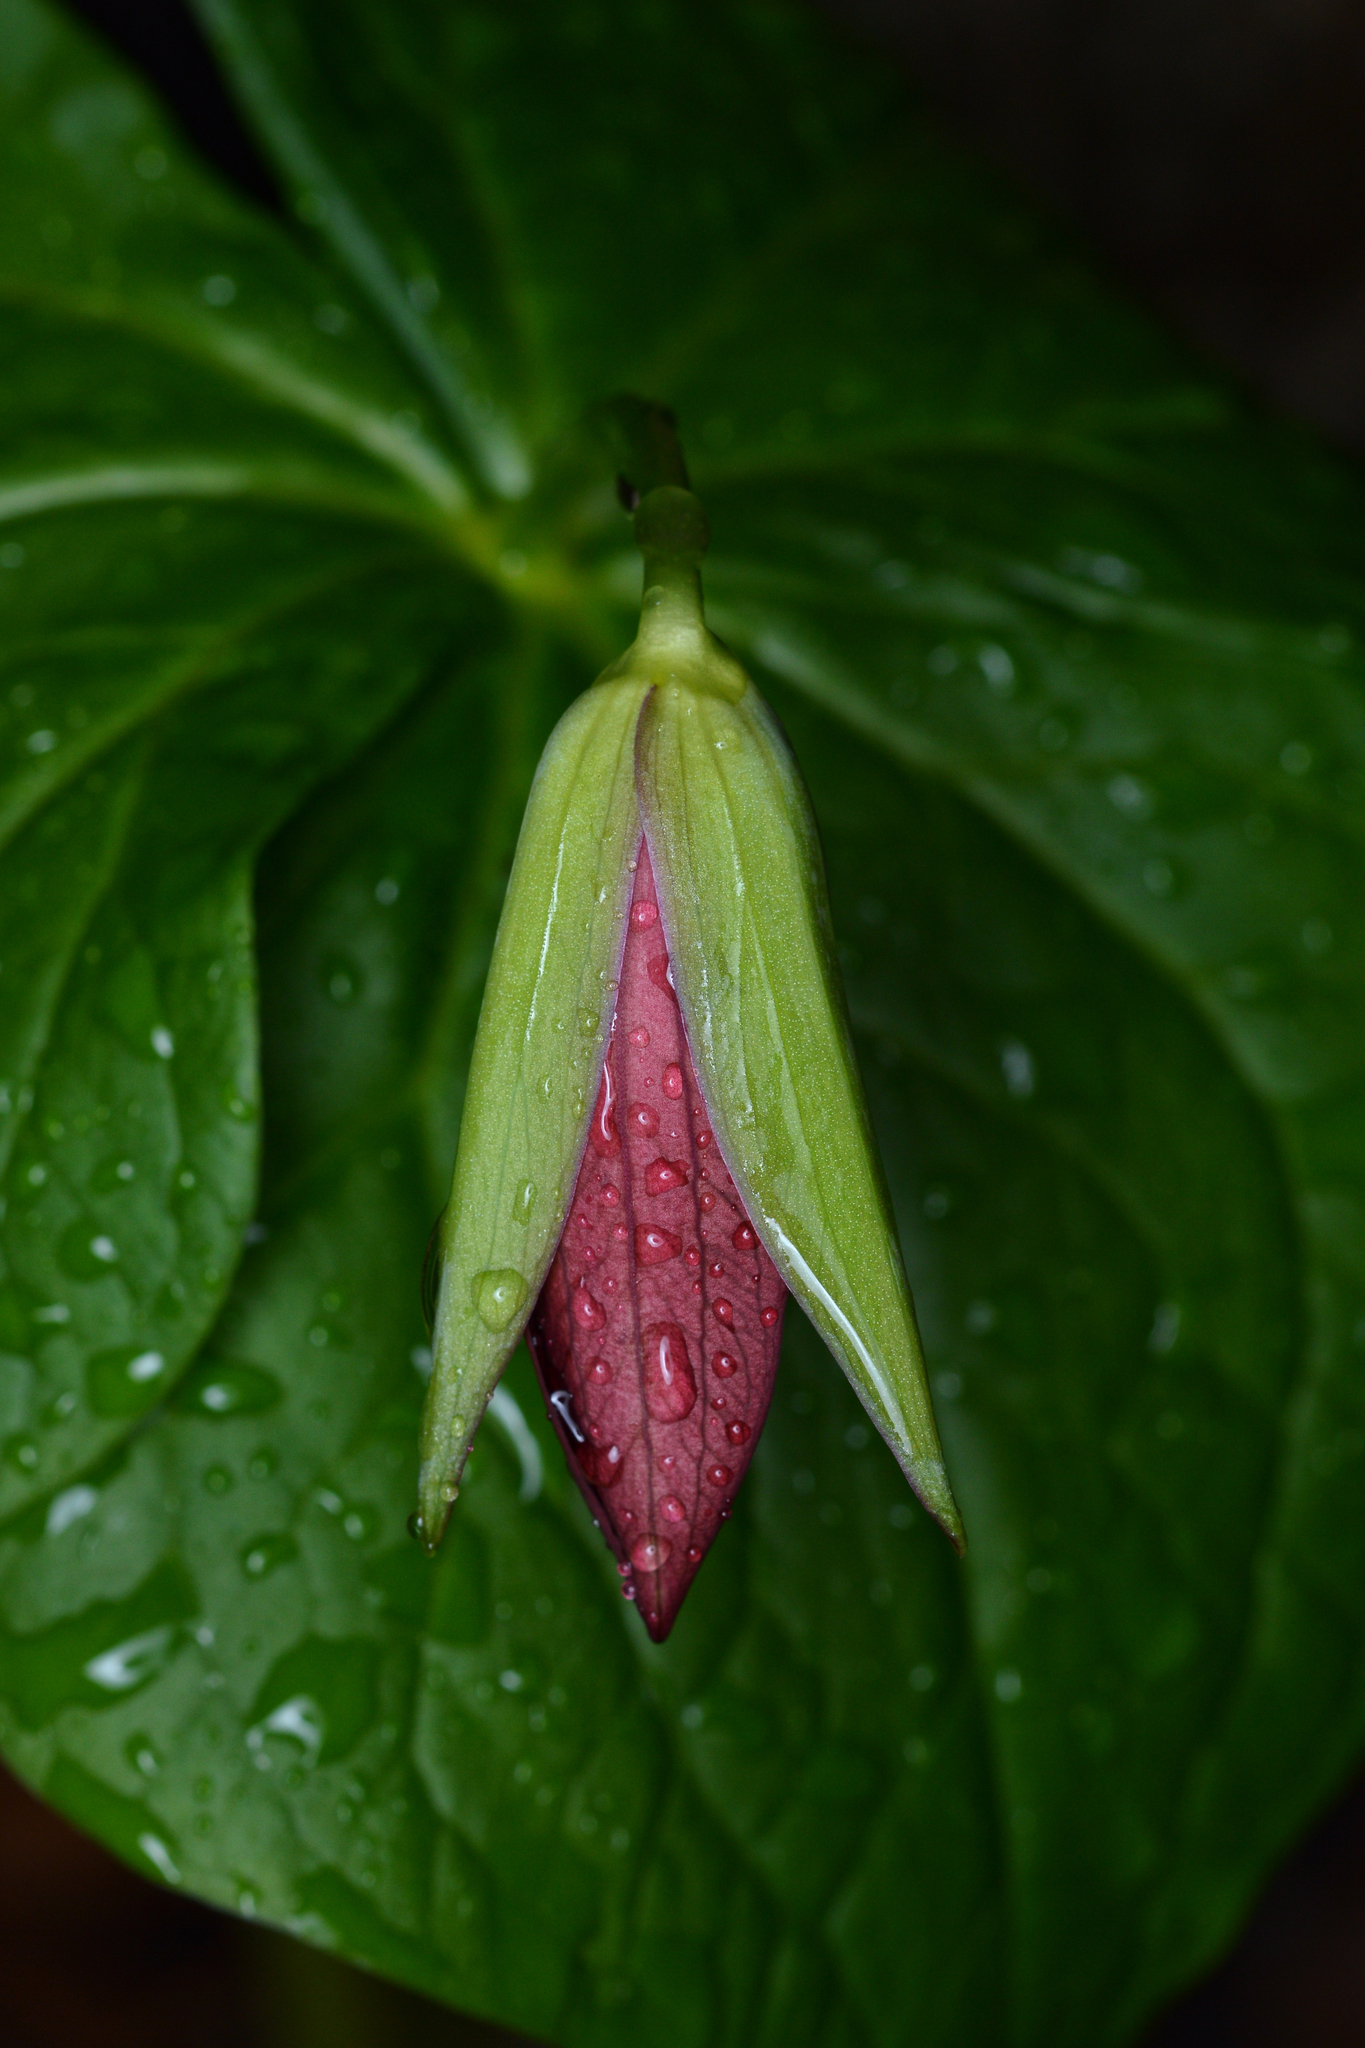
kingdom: Plantae
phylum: Tracheophyta
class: Liliopsida
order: Liliales
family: Melanthiaceae
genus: Trillium
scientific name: Trillium erectum
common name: Purple trillium
